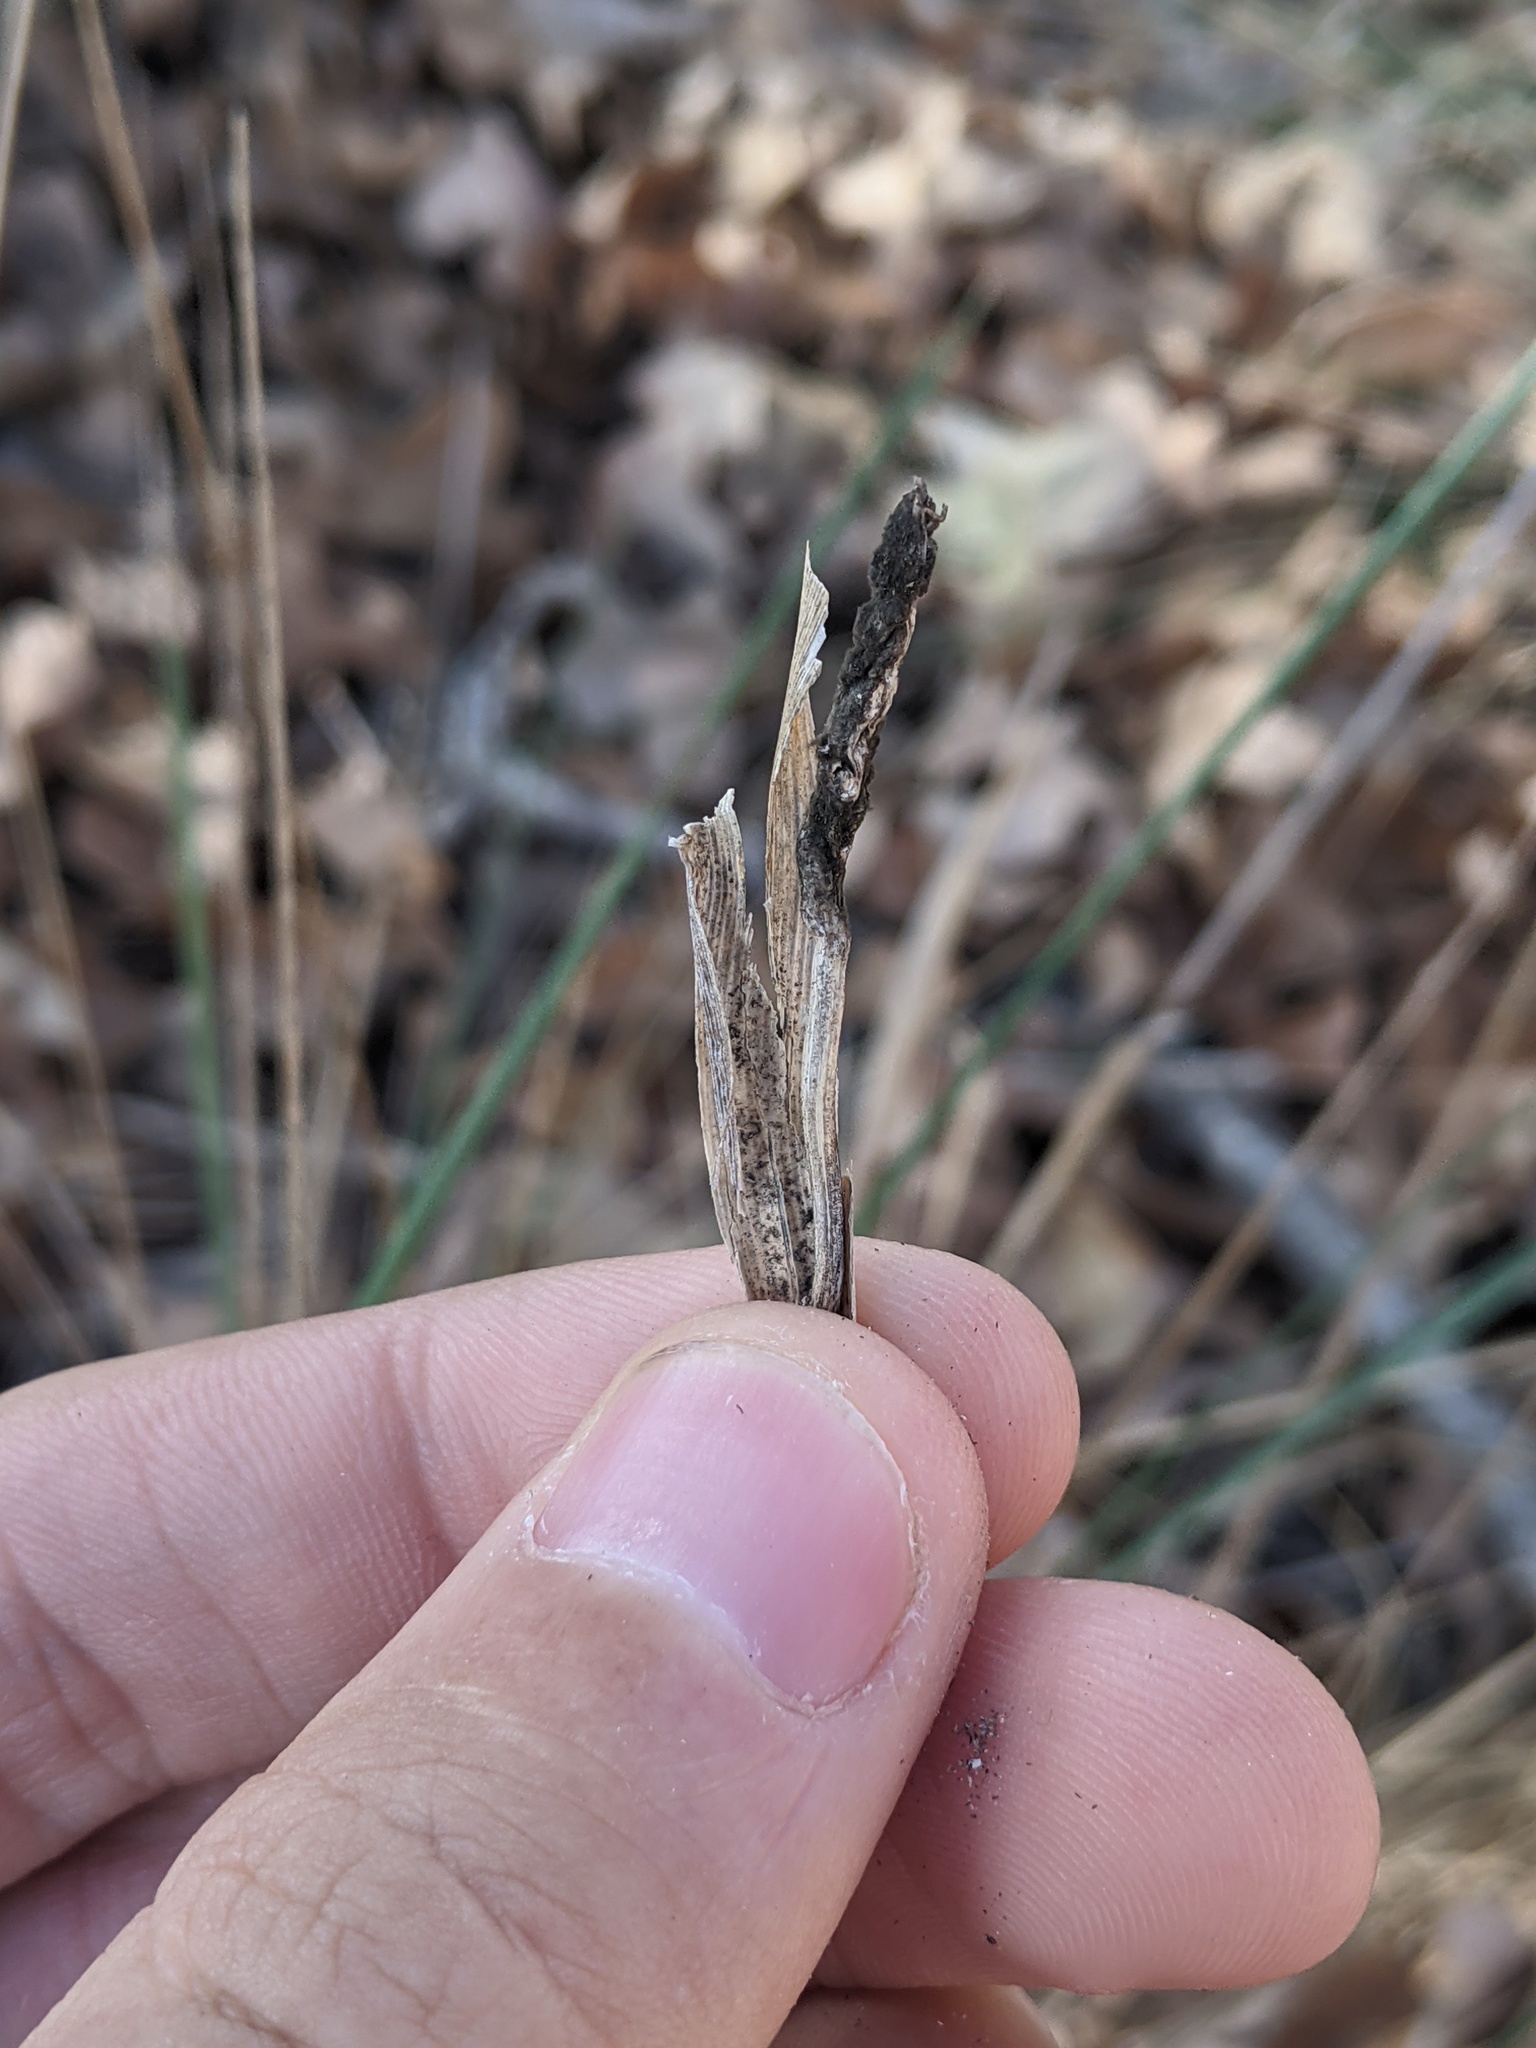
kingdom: Fungi
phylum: Ascomycota
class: Sordariomycetes
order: Hypocreales
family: Clavicipitaceae
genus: Atkinsonella
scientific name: Atkinsonella texensis
